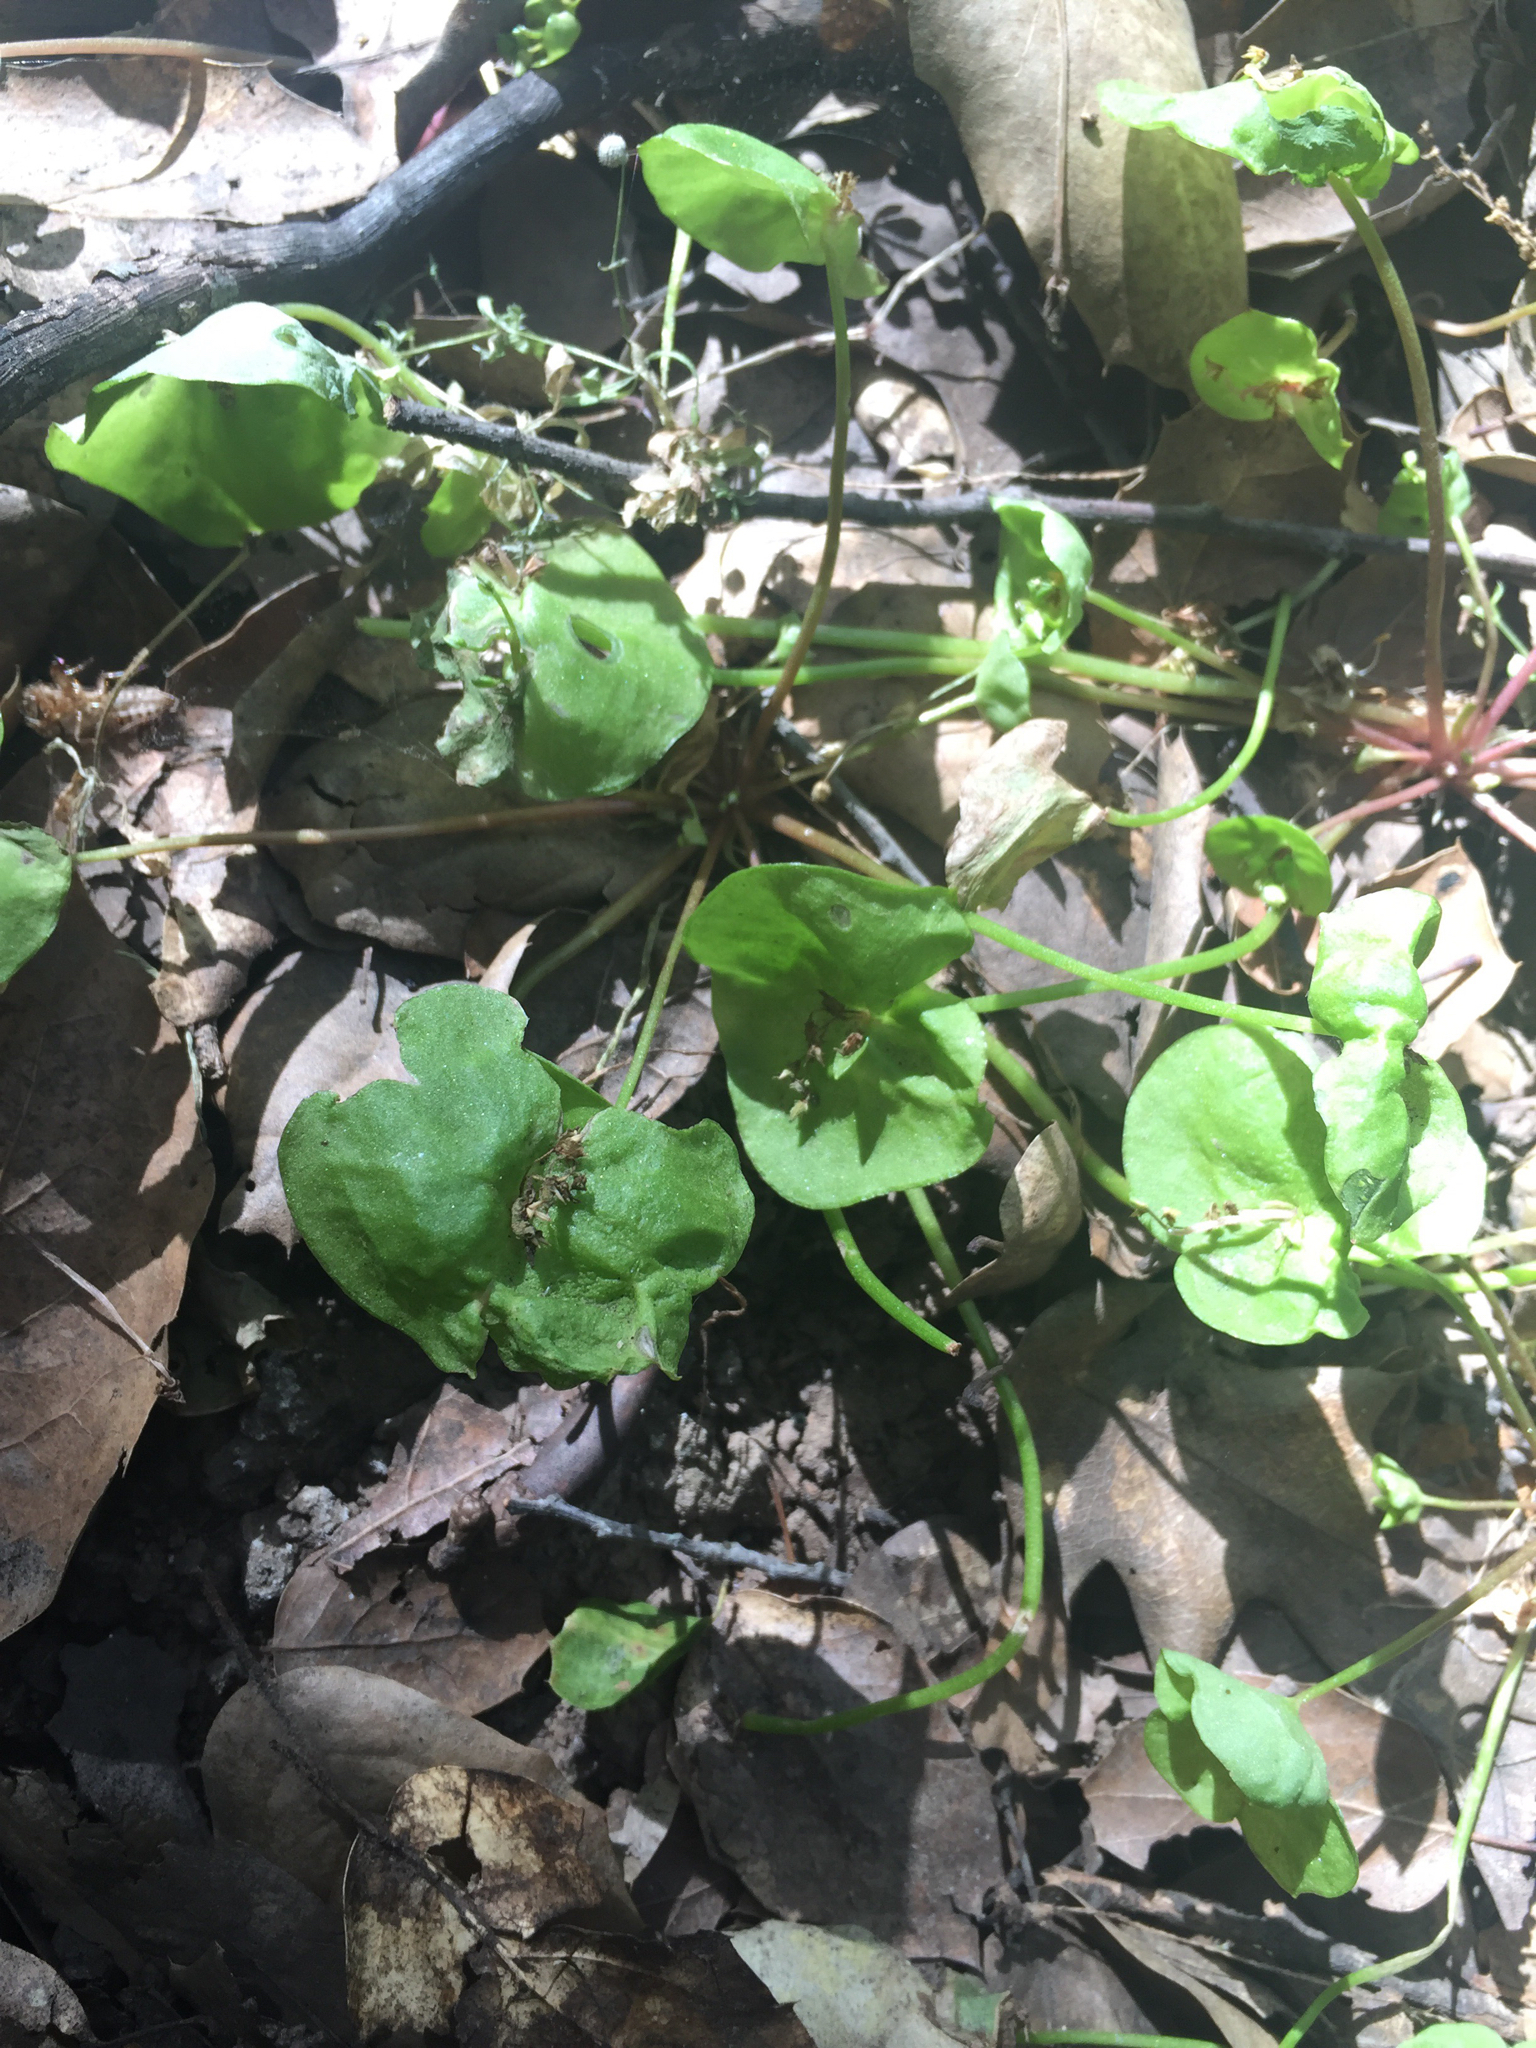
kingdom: Plantae
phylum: Tracheophyta
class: Magnoliopsida
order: Caryophyllales
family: Montiaceae
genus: Claytonia
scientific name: Claytonia perfoliata
